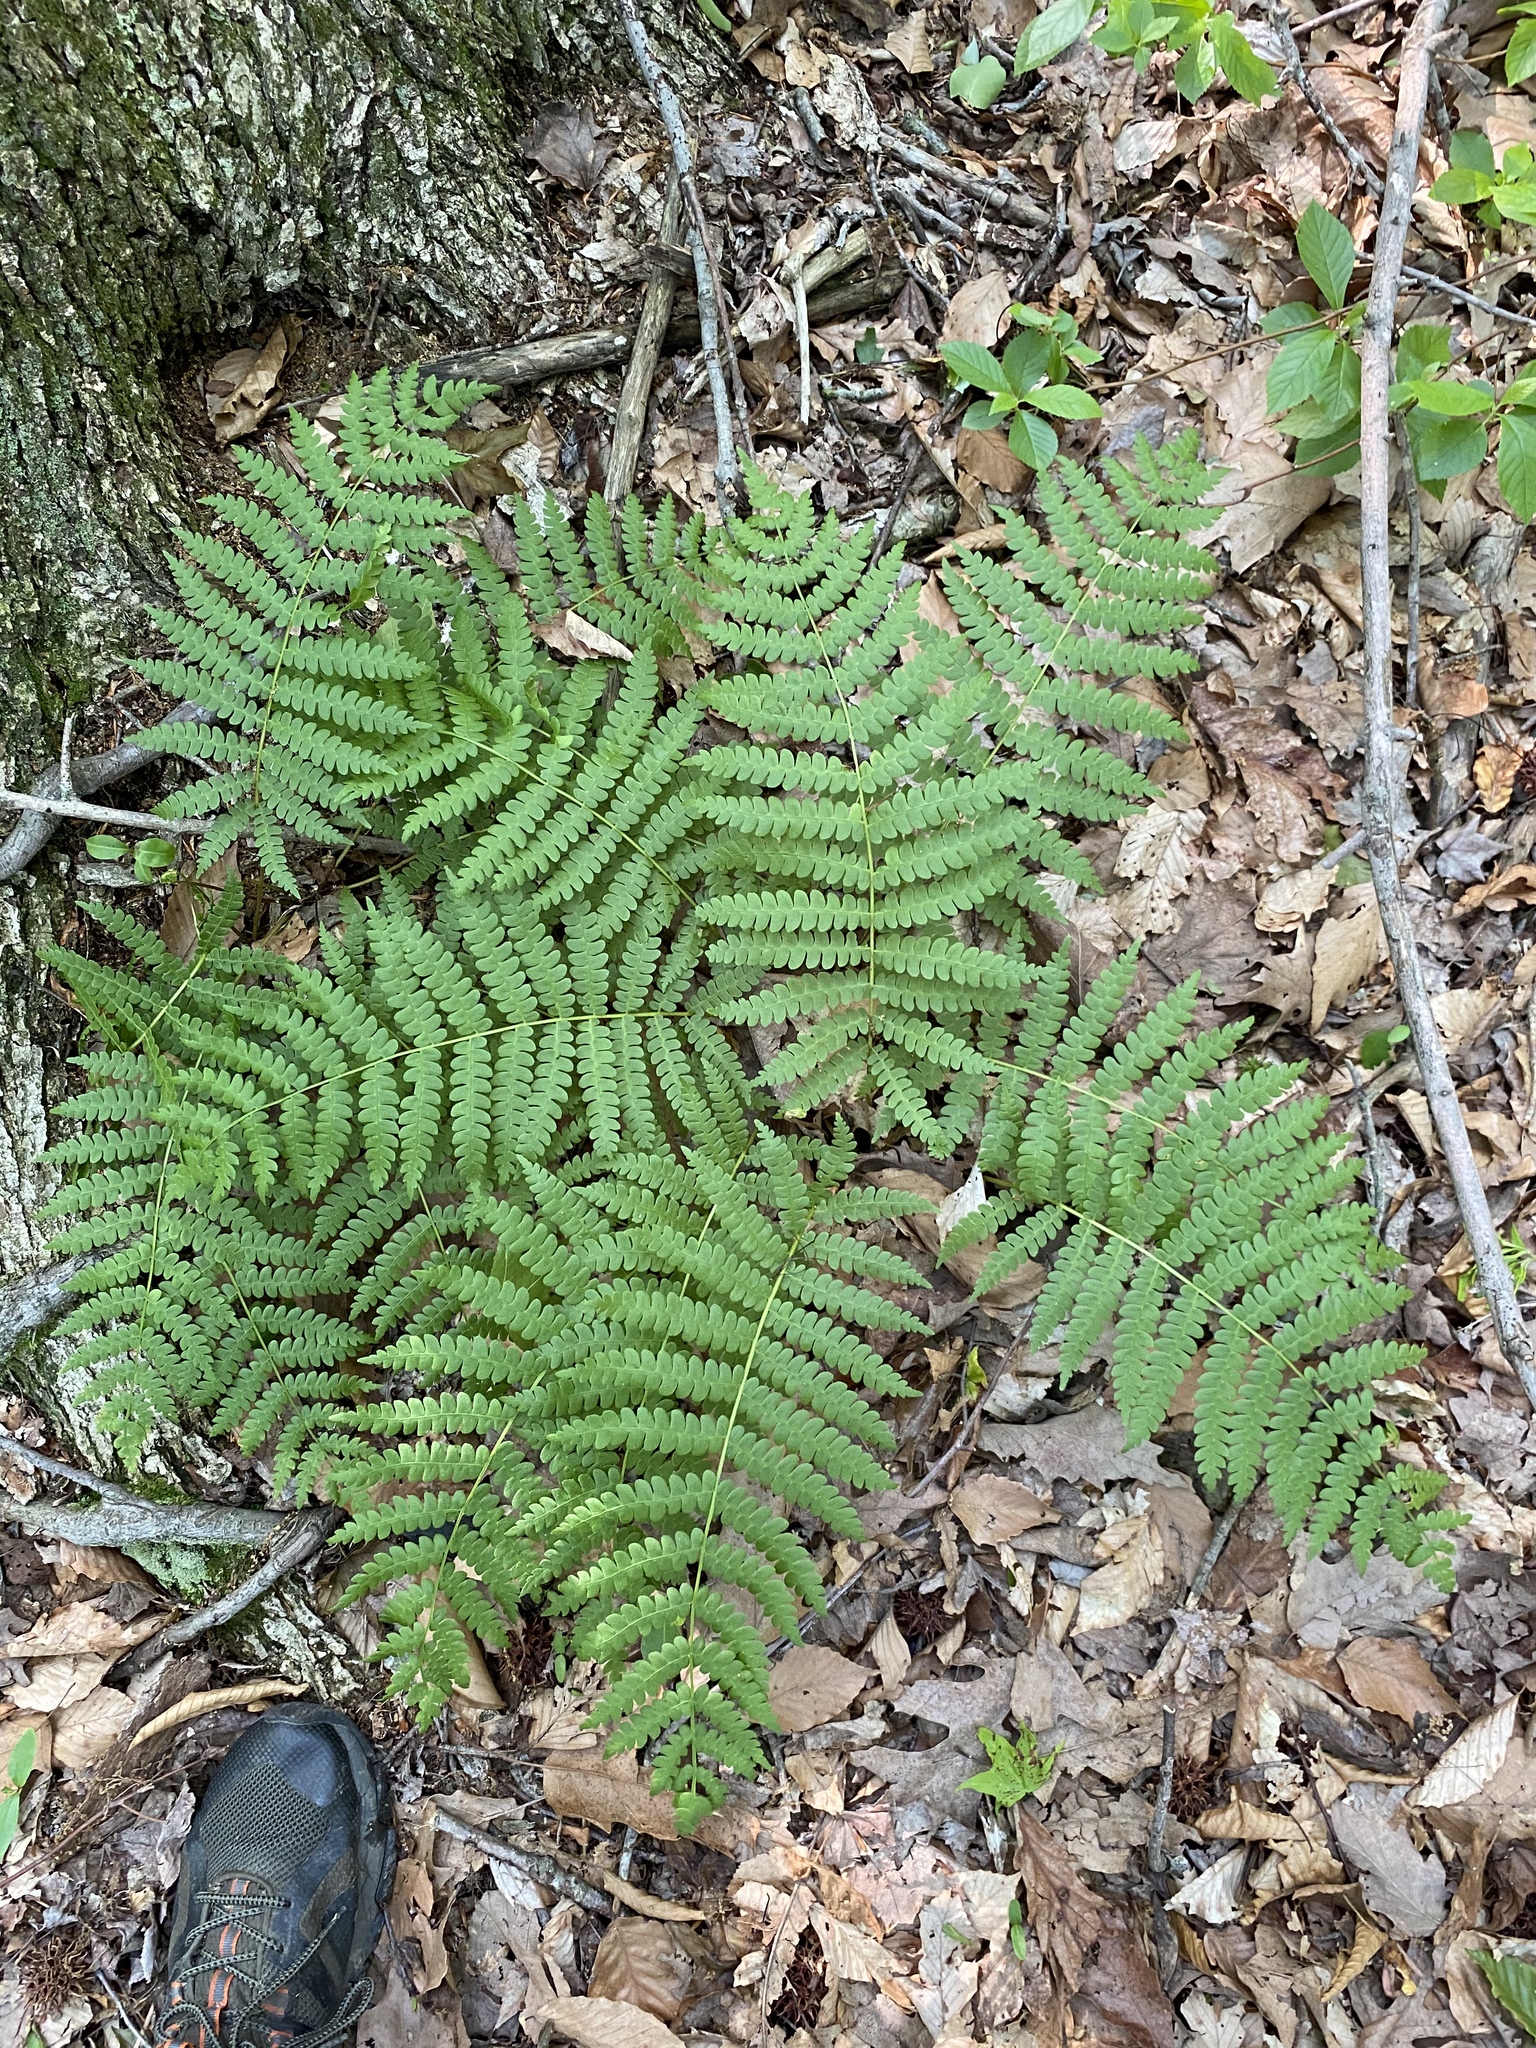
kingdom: Plantae
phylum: Tracheophyta
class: Polypodiopsida
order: Osmundales
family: Osmundaceae
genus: Osmundastrum
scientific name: Osmundastrum cinnamomeum
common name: Cinnamon fern
